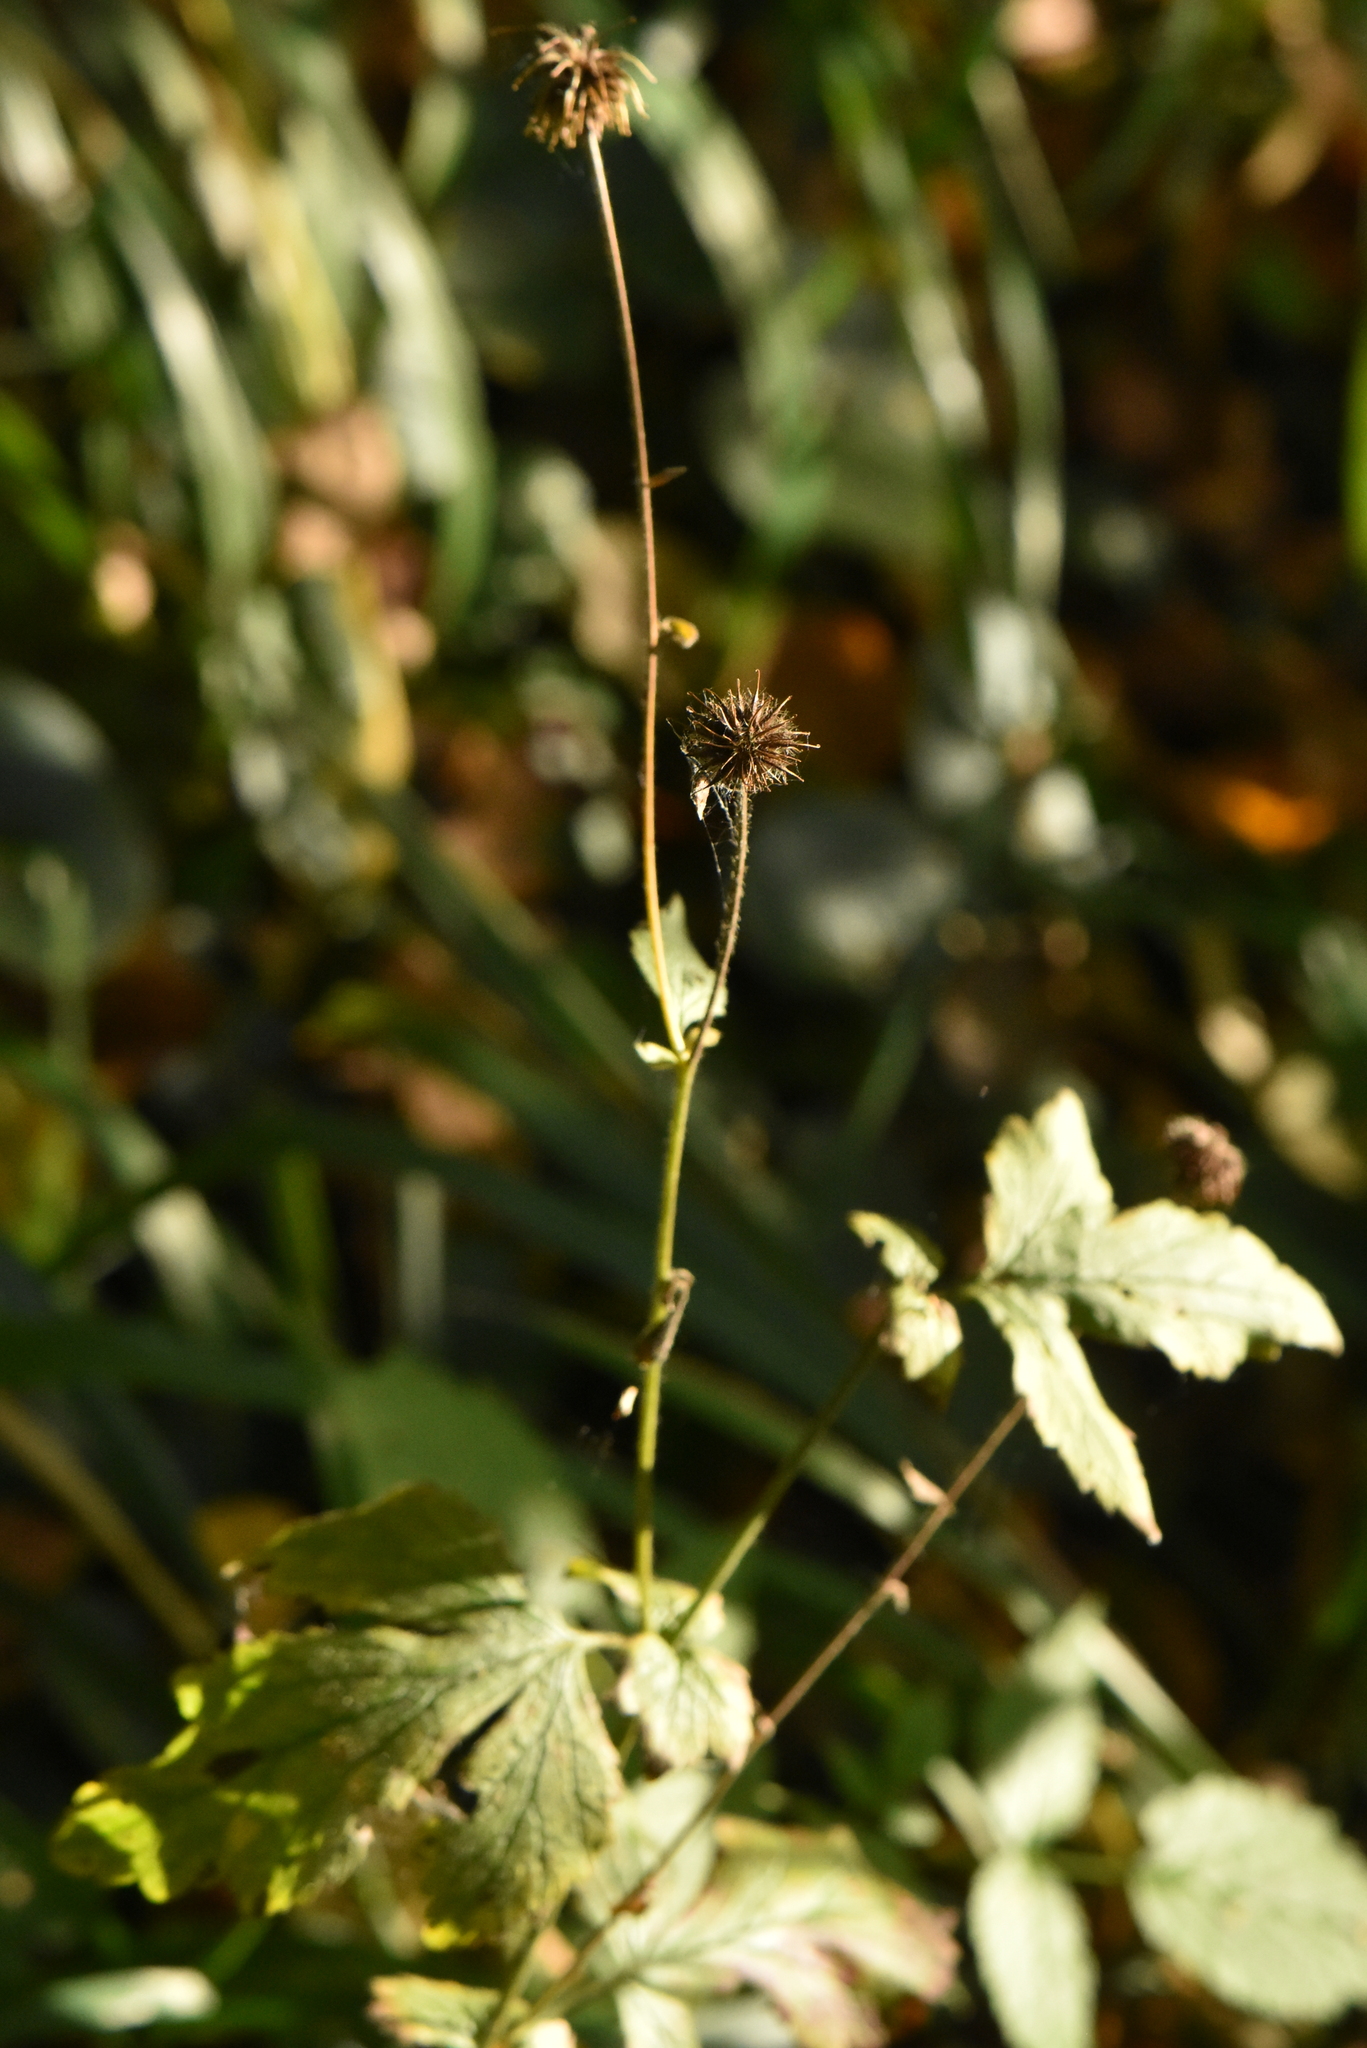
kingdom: Plantae
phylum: Tracheophyta
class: Magnoliopsida
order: Rosales
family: Rosaceae
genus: Geum
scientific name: Geum urbanum
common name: Wood avens
